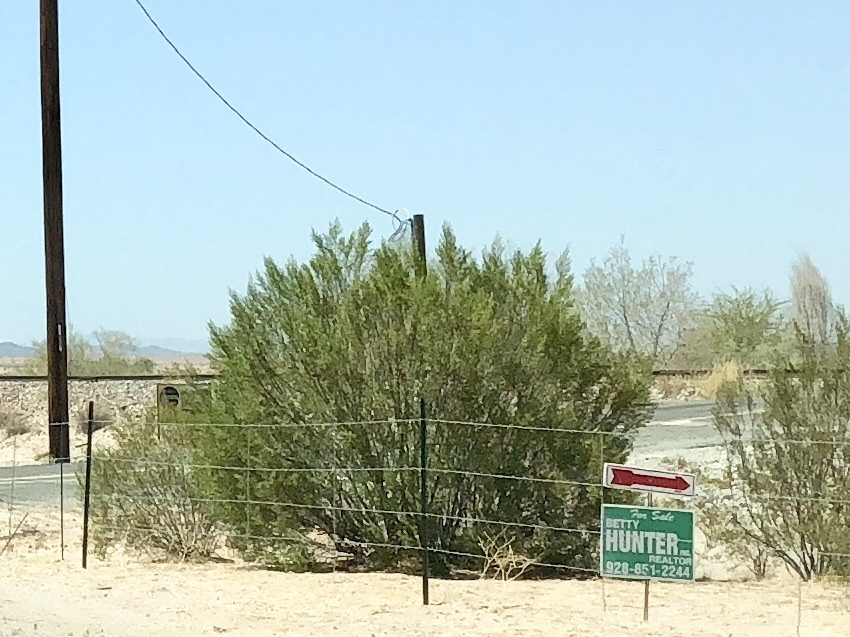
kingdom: Plantae
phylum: Tracheophyta
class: Magnoliopsida
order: Zygophyllales
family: Zygophyllaceae
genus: Larrea
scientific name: Larrea tridentata
